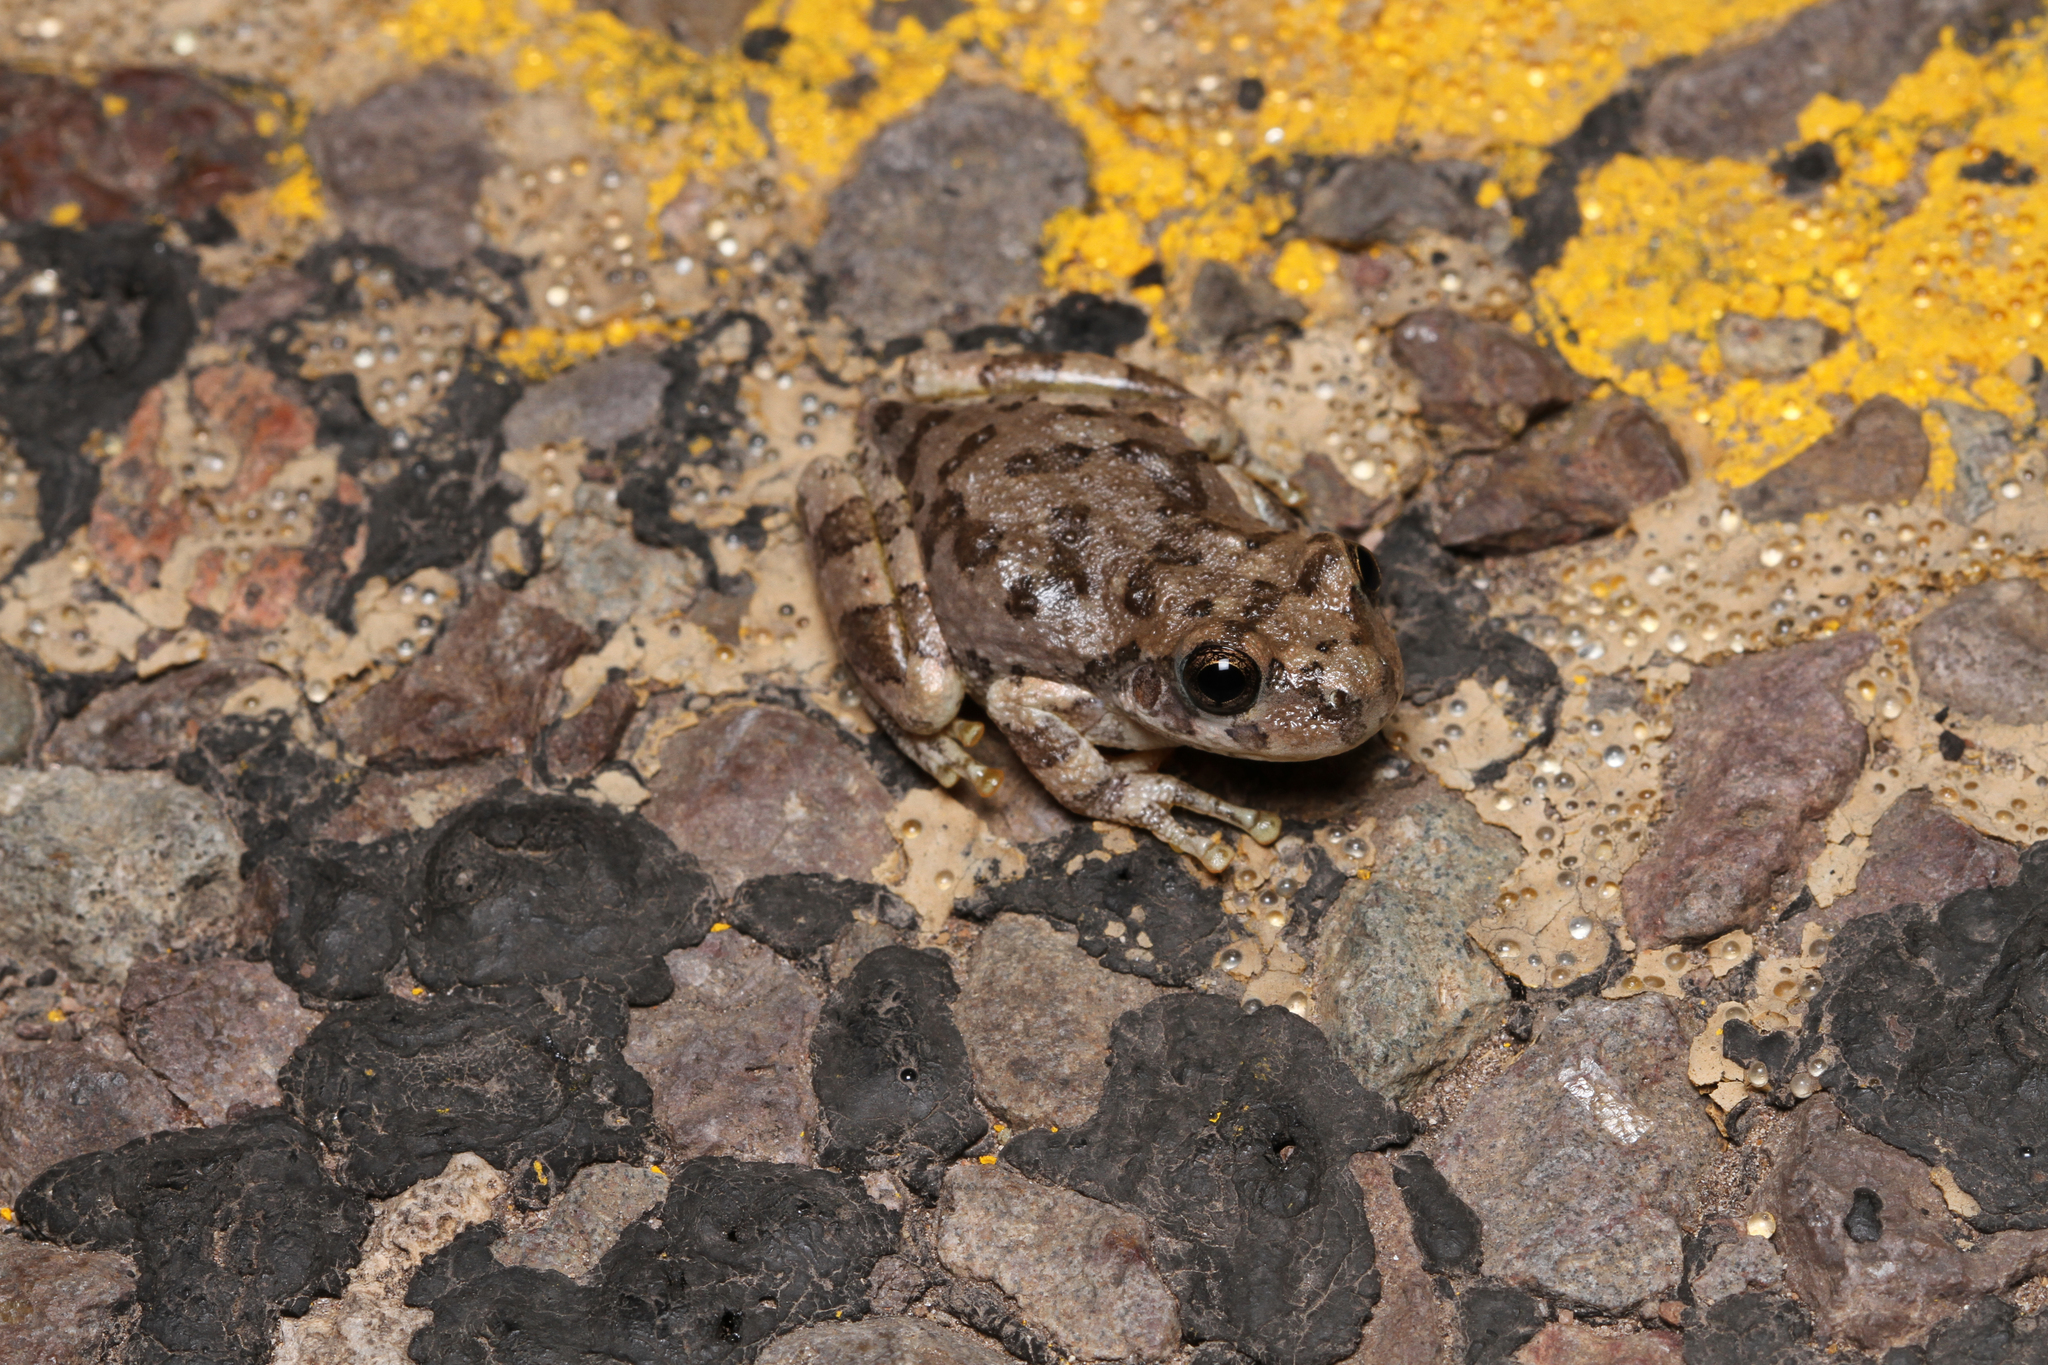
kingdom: Animalia
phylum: Chordata
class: Amphibia
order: Anura
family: Hylidae
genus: Dryophytes
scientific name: Dryophytes arenicolor
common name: Canyon treefrog
